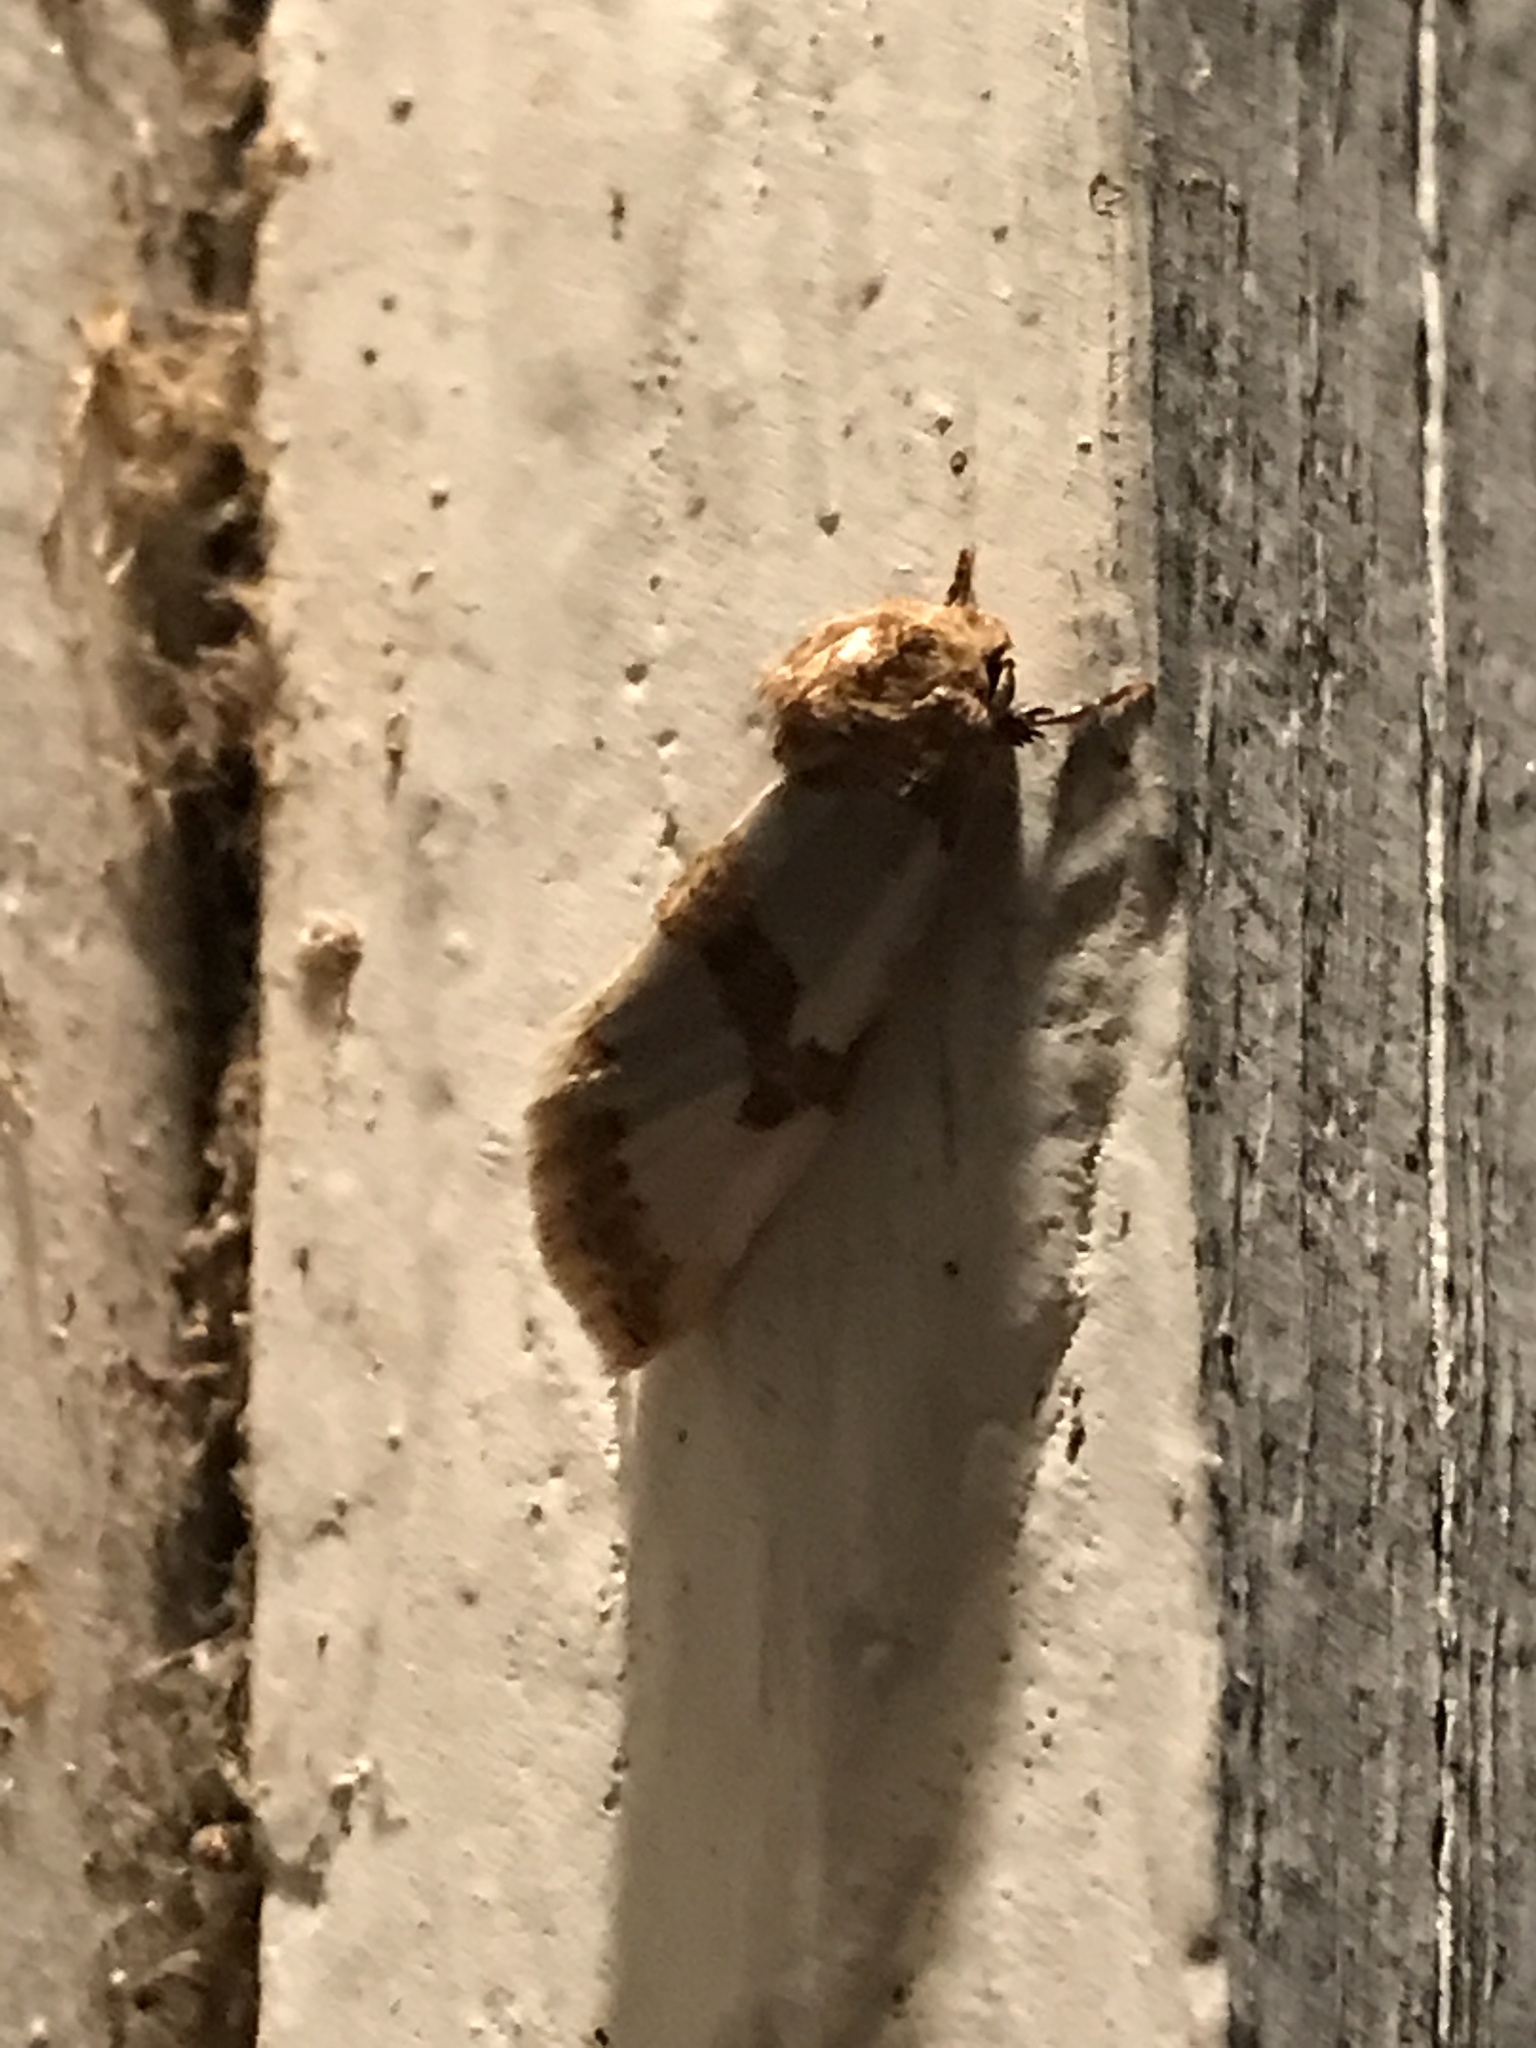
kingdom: Animalia
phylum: Arthropoda
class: Insecta
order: Lepidoptera
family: Noctuidae
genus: Schinia
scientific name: Schinia chrysellus
